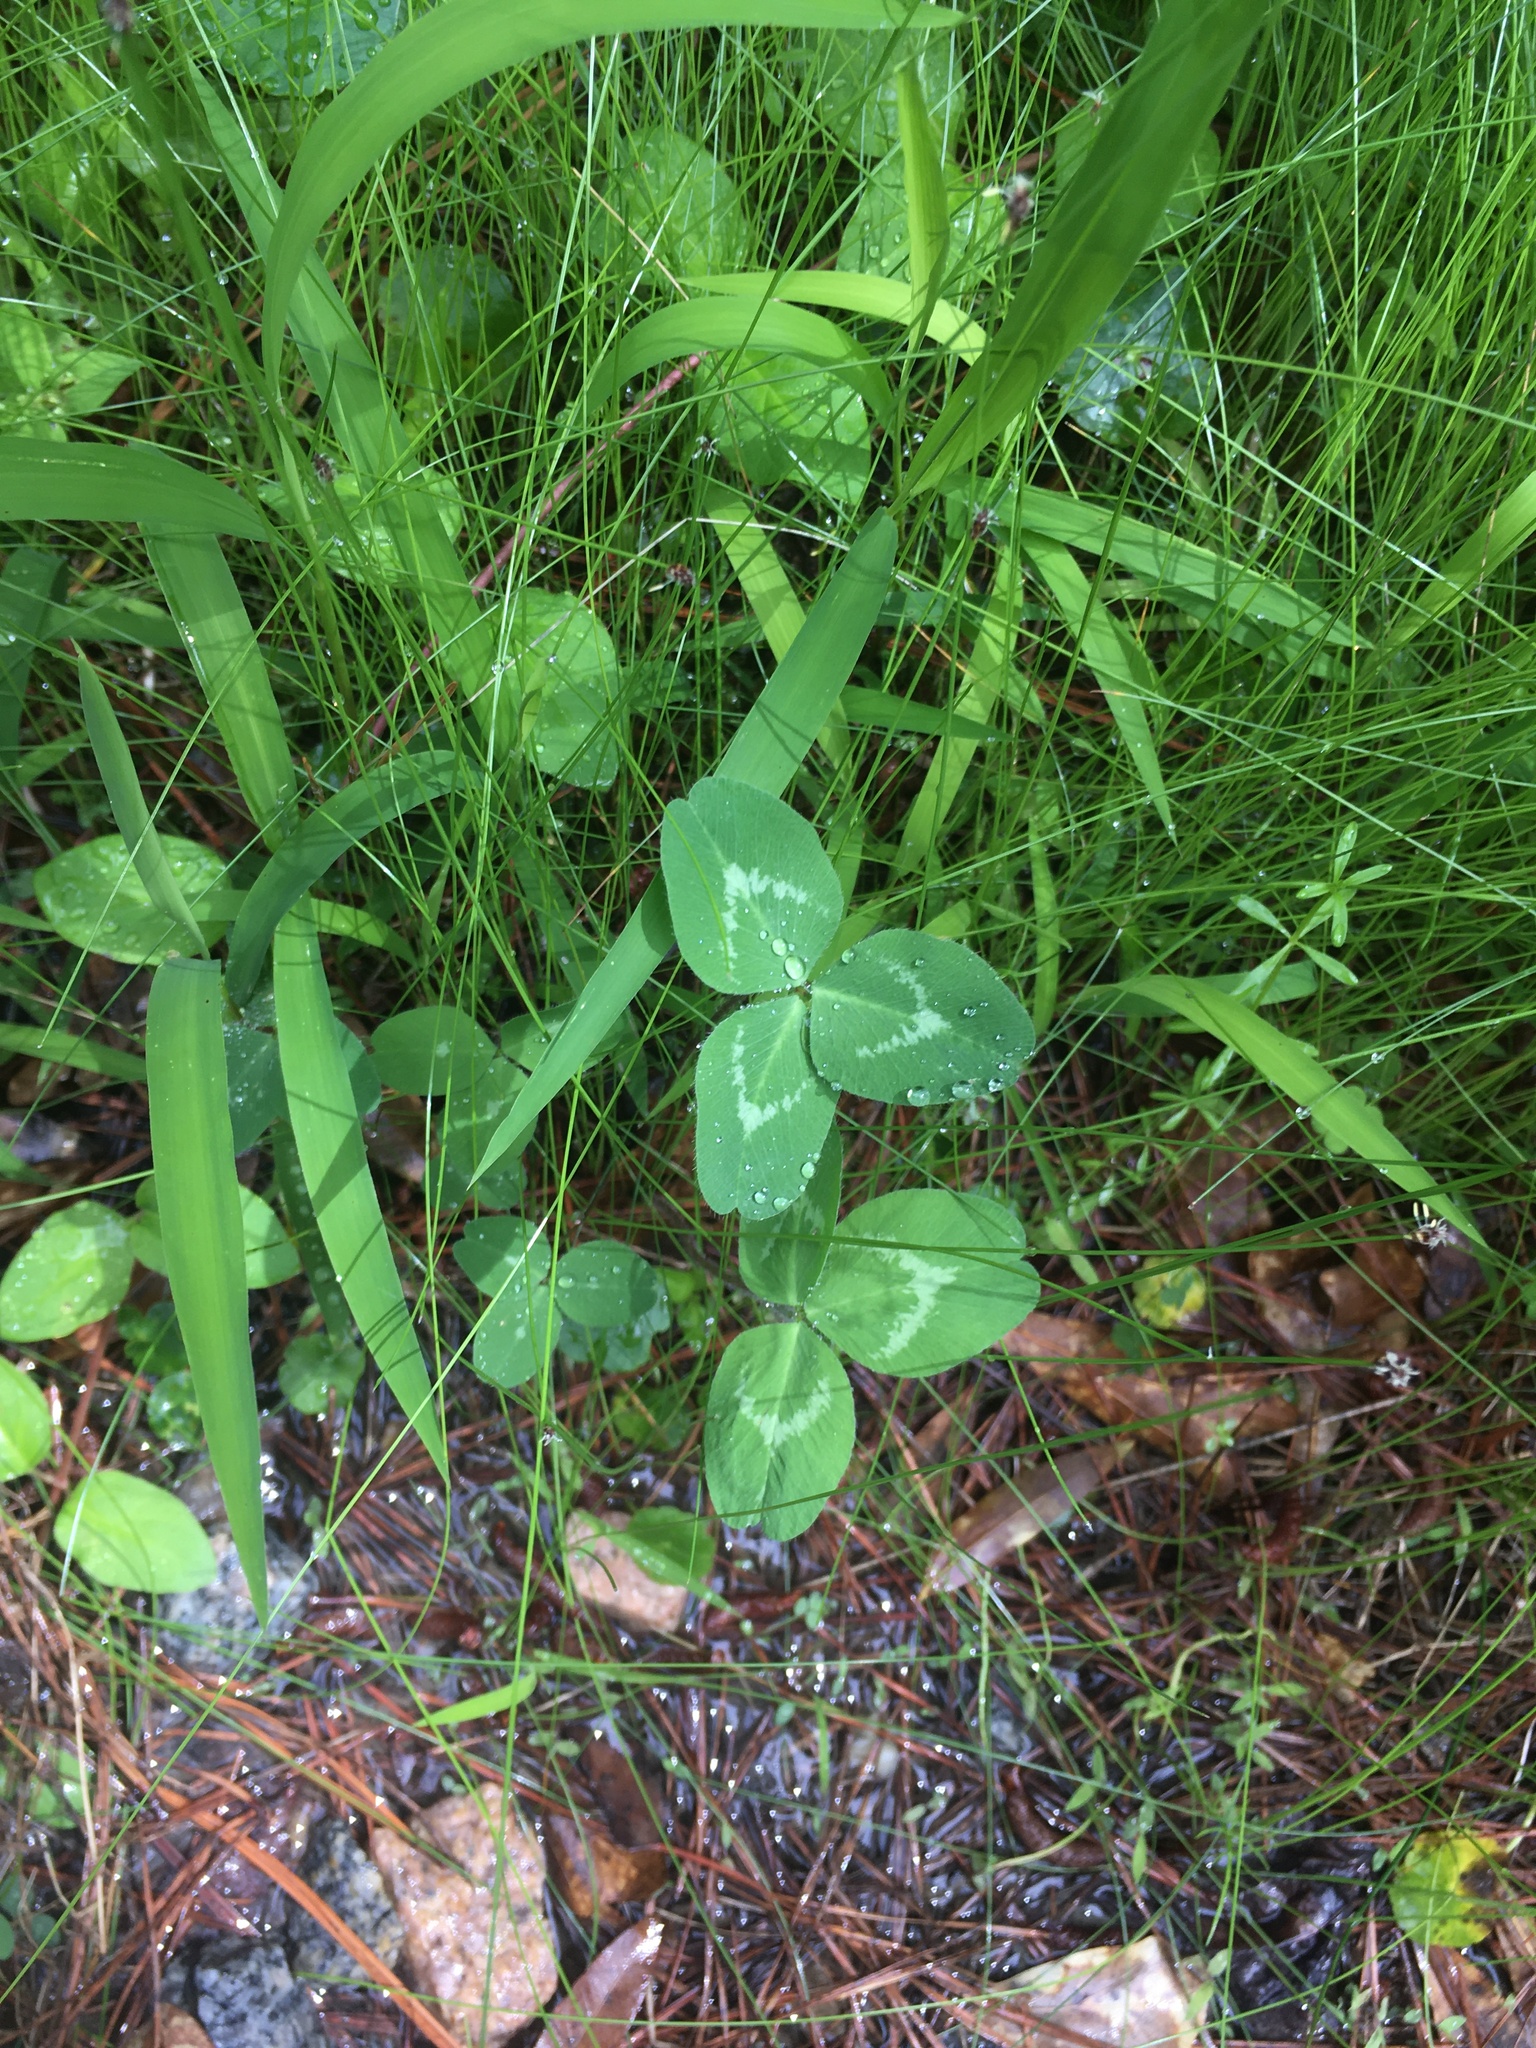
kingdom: Plantae
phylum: Tracheophyta
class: Magnoliopsida
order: Fabales
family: Fabaceae
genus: Trifolium
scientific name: Trifolium pratense
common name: Red clover
